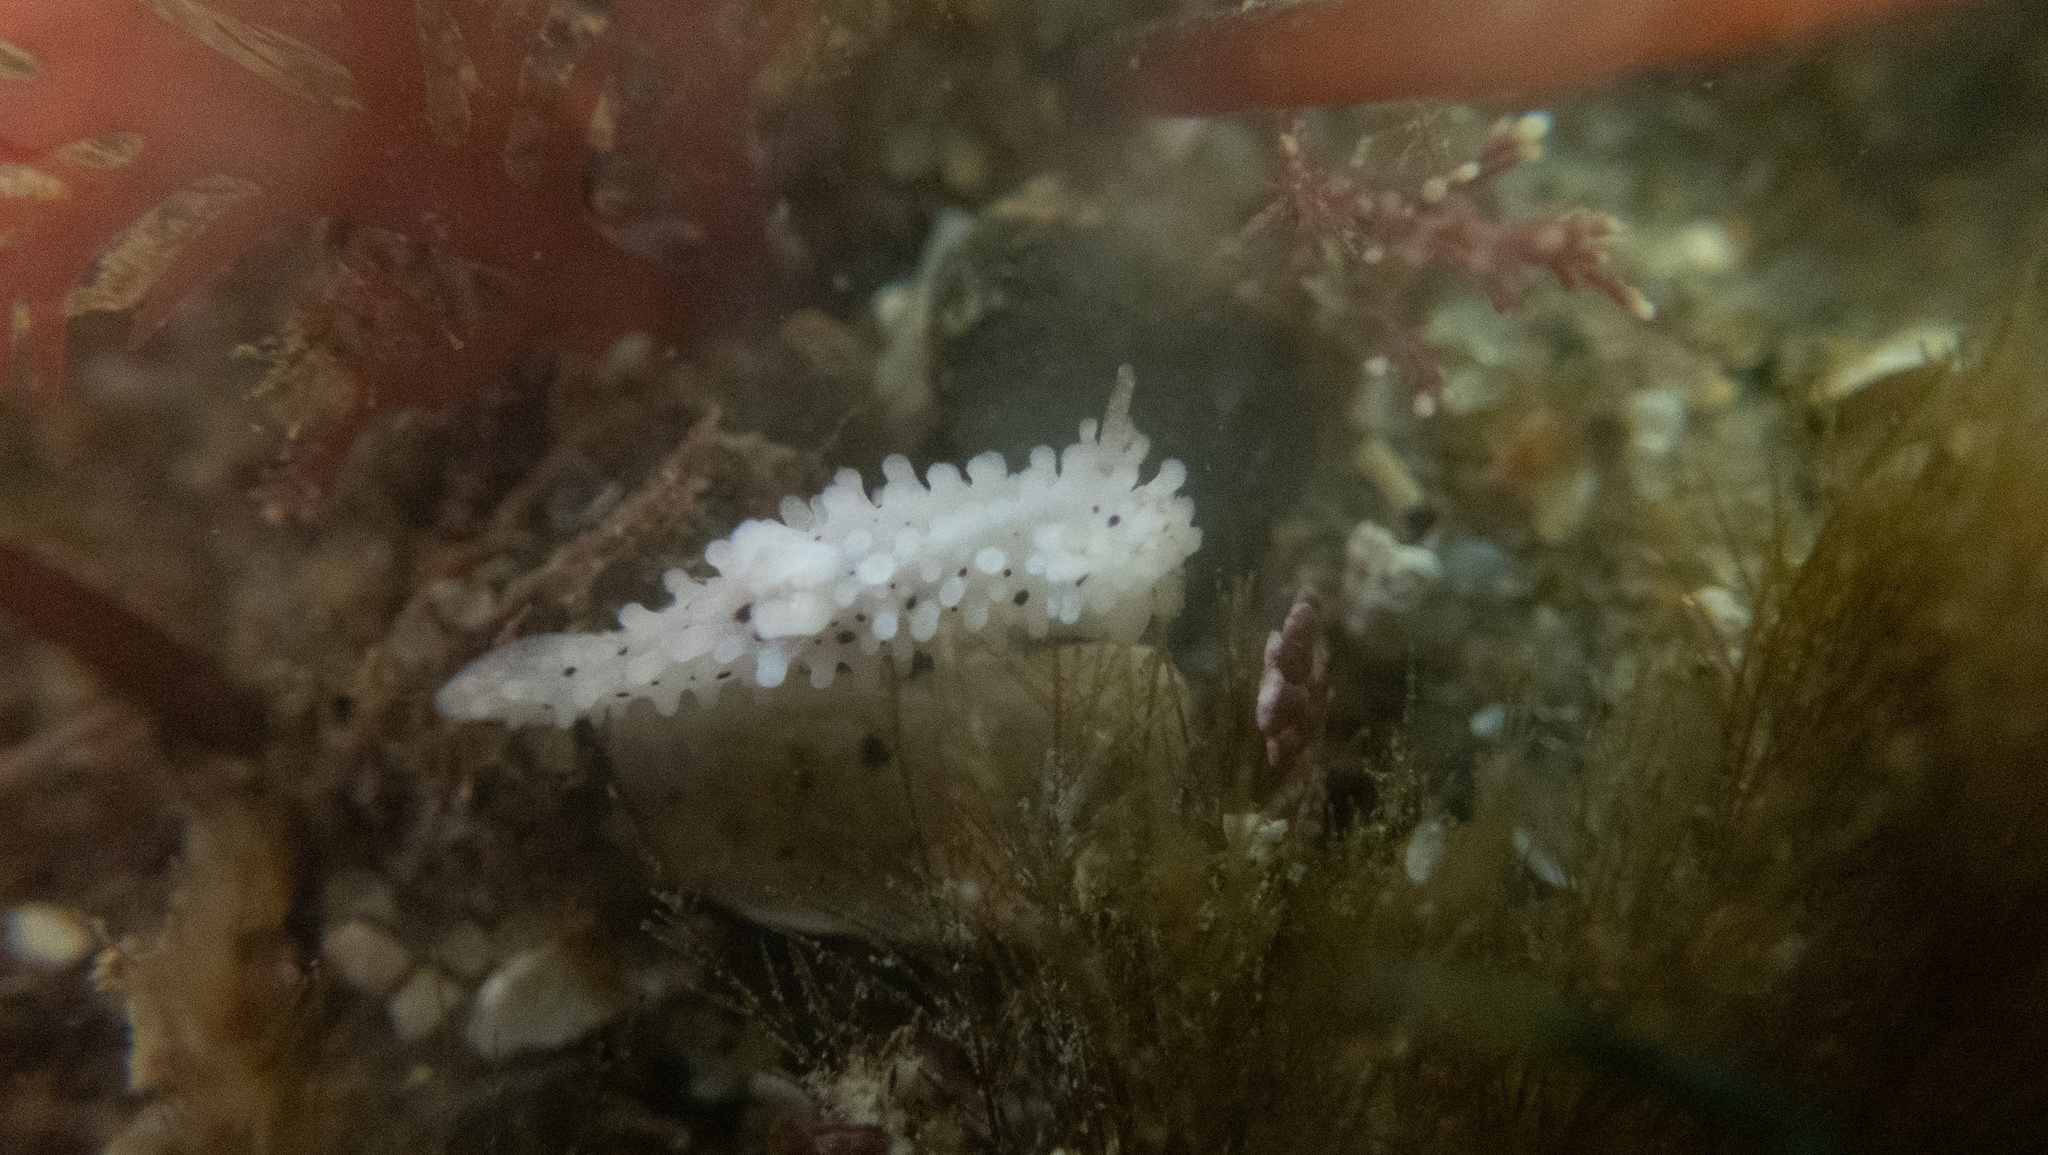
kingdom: Animalia
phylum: Mollusca
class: Gastropoda
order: Nudibranchia
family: Aegiridae
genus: Aegires
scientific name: Aegires albopunctatus
